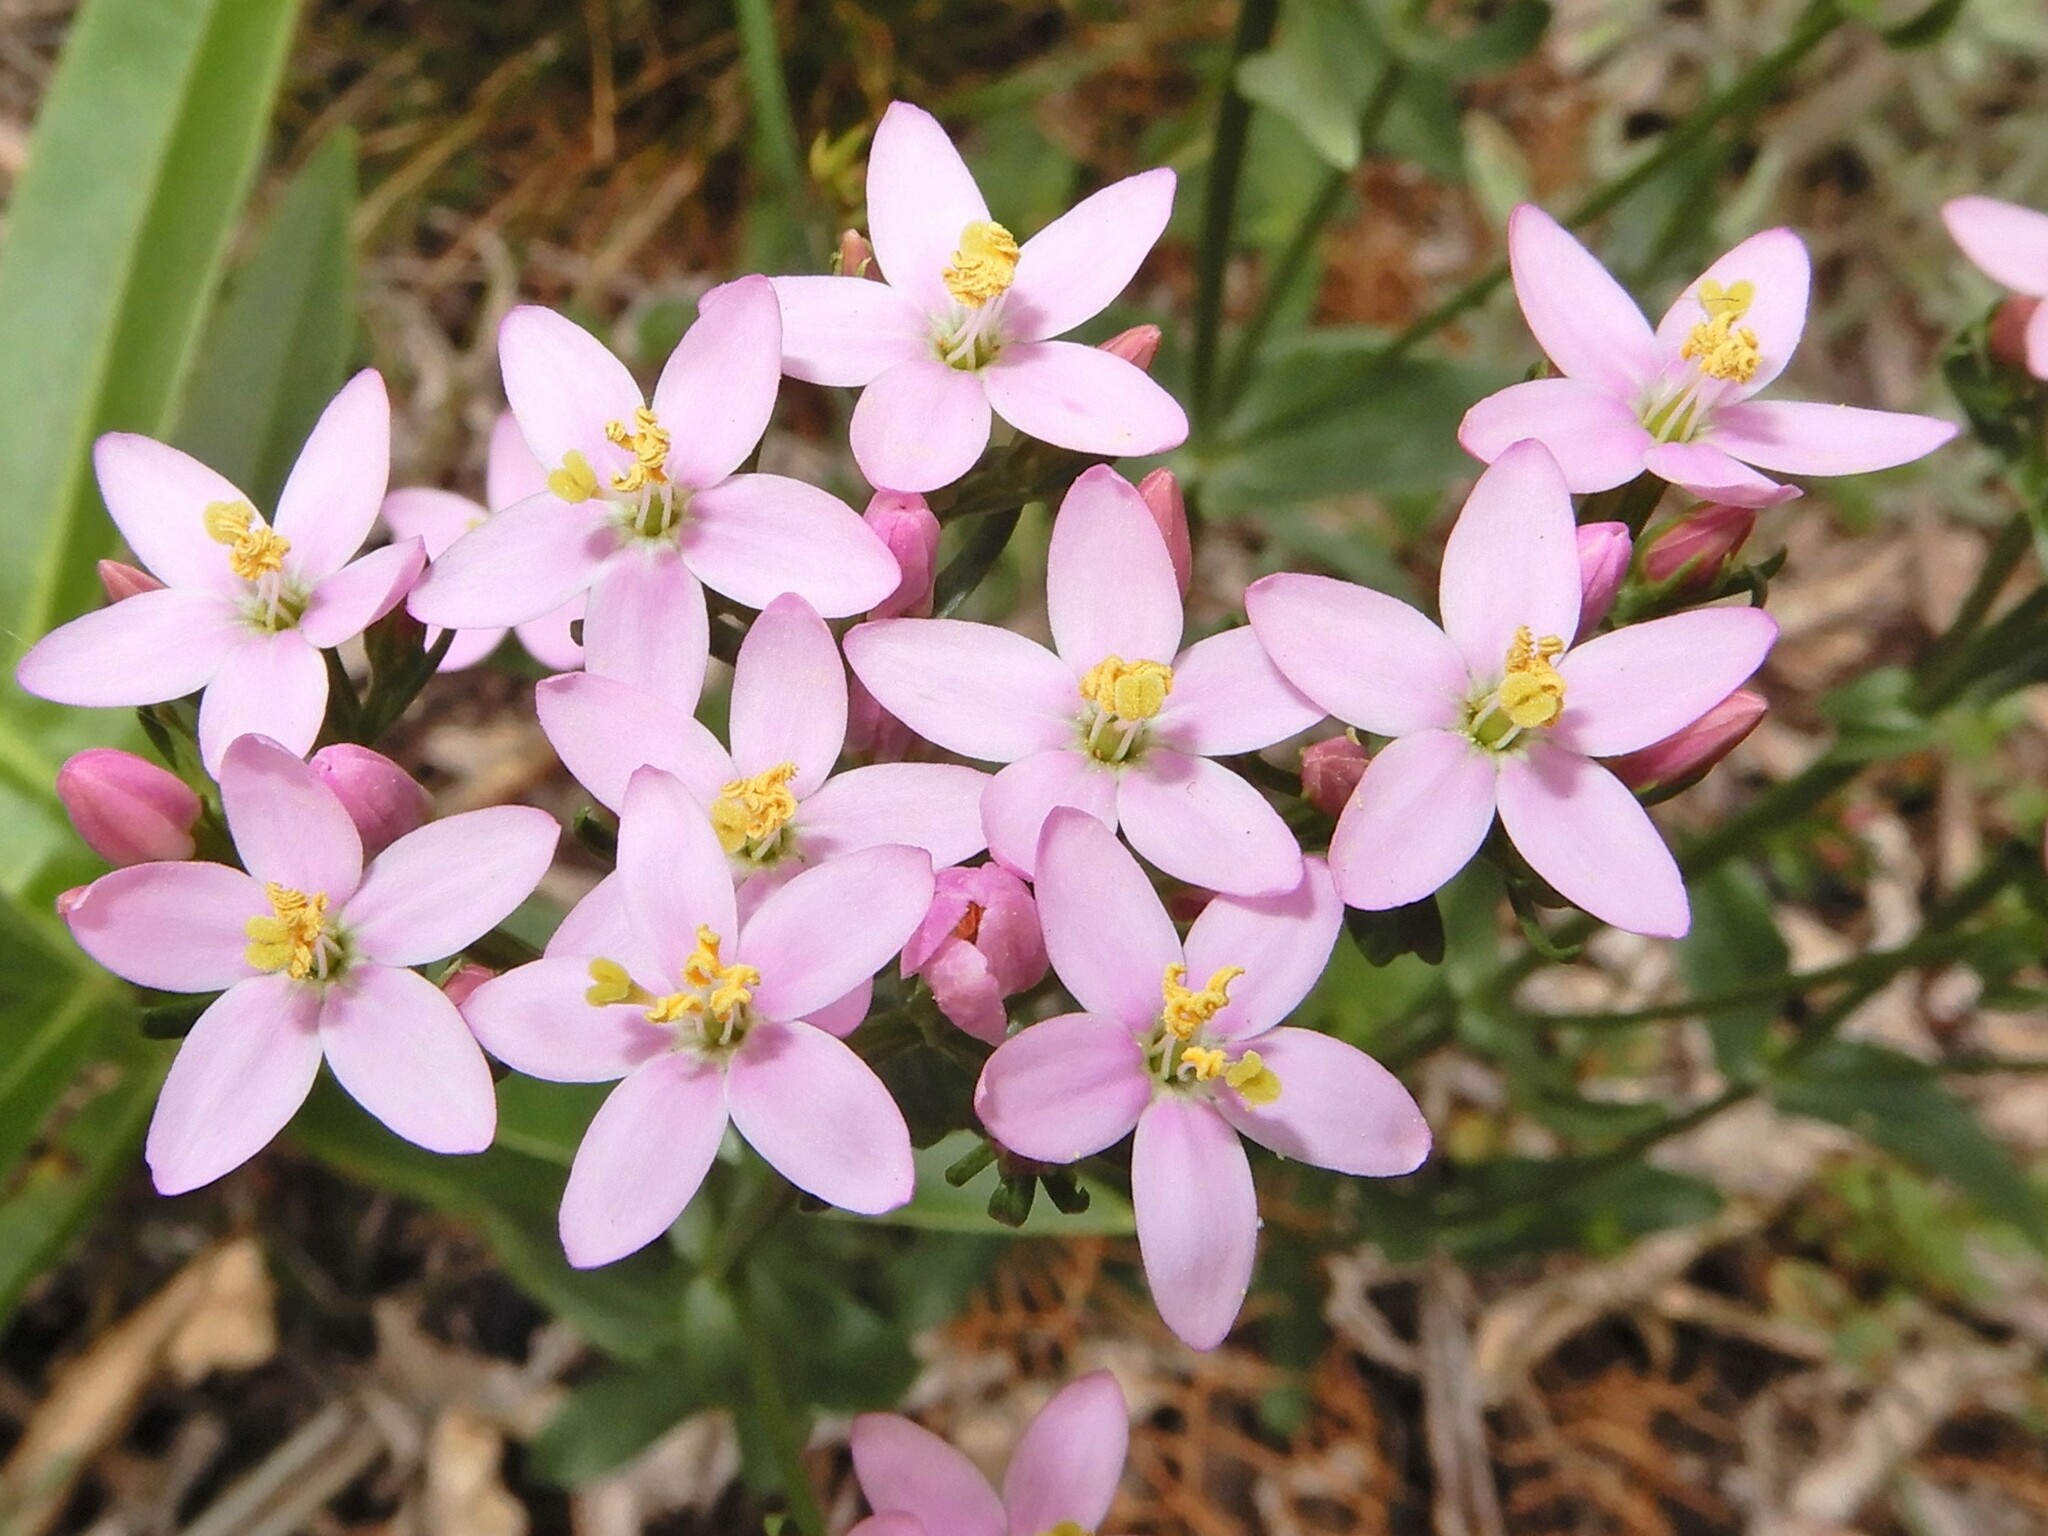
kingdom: Plantae
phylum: Tracheophyta
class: Magnoliopsida
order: Gentianales
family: Gentianaceae
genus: Centaurium
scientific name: Centaurium erythraea
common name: Common centaury
